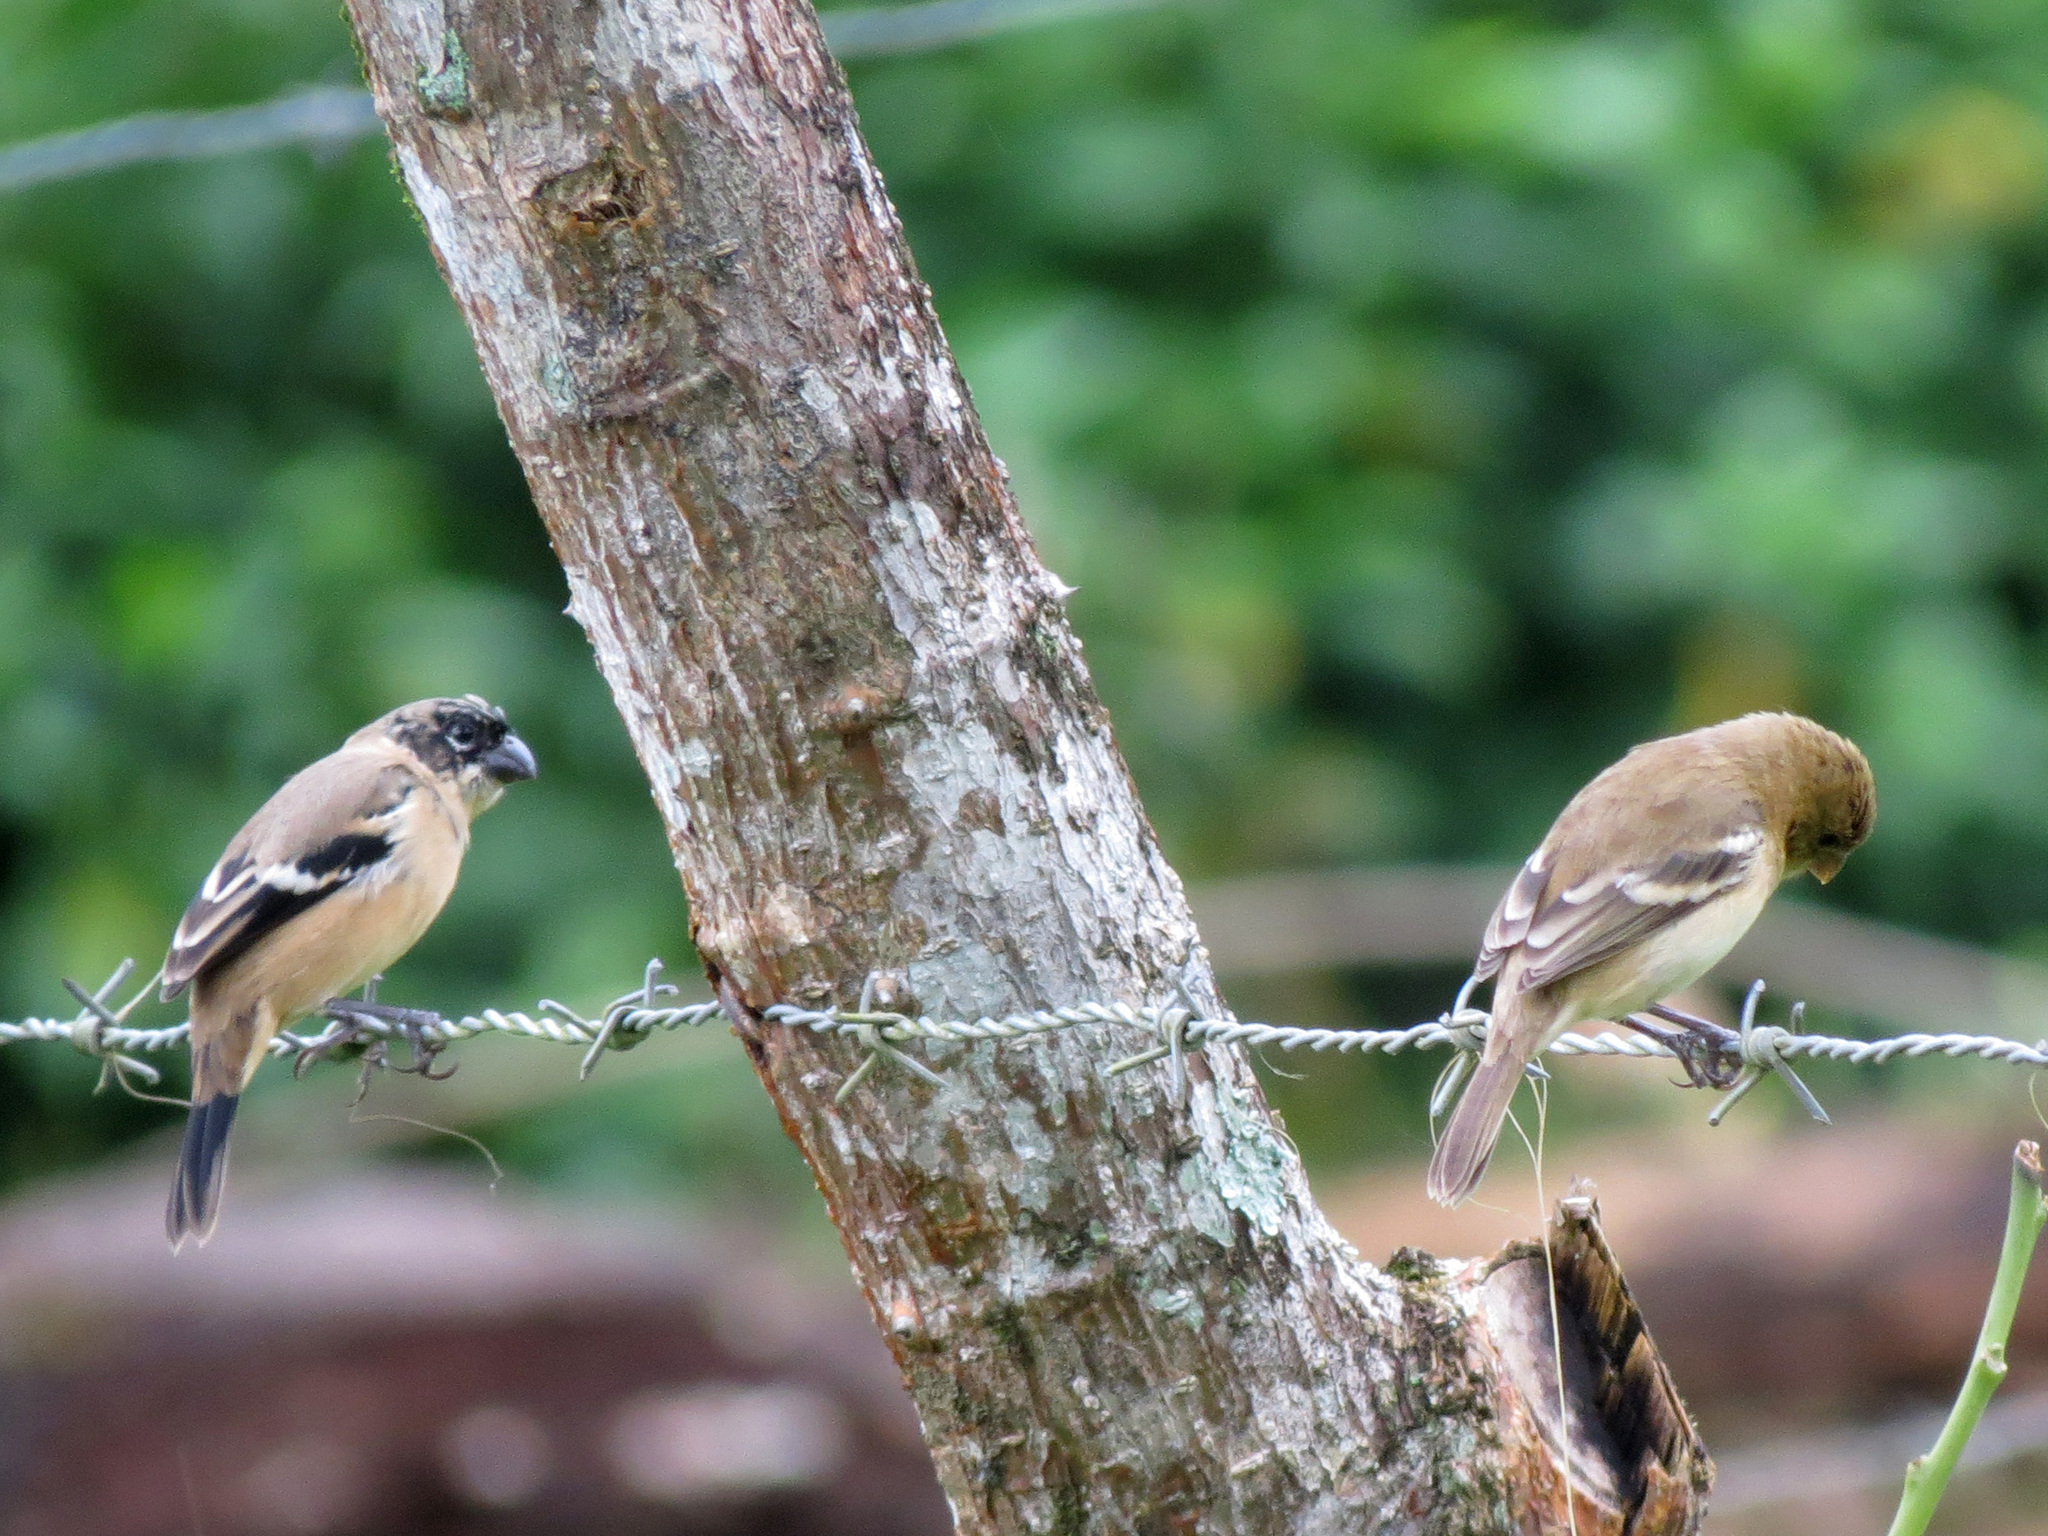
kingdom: Animalia
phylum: Chordata
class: Aves
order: Passeriformes
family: Thraupidae
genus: Sporophila
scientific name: Sporophila morelleti
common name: Morelet's seedeater
